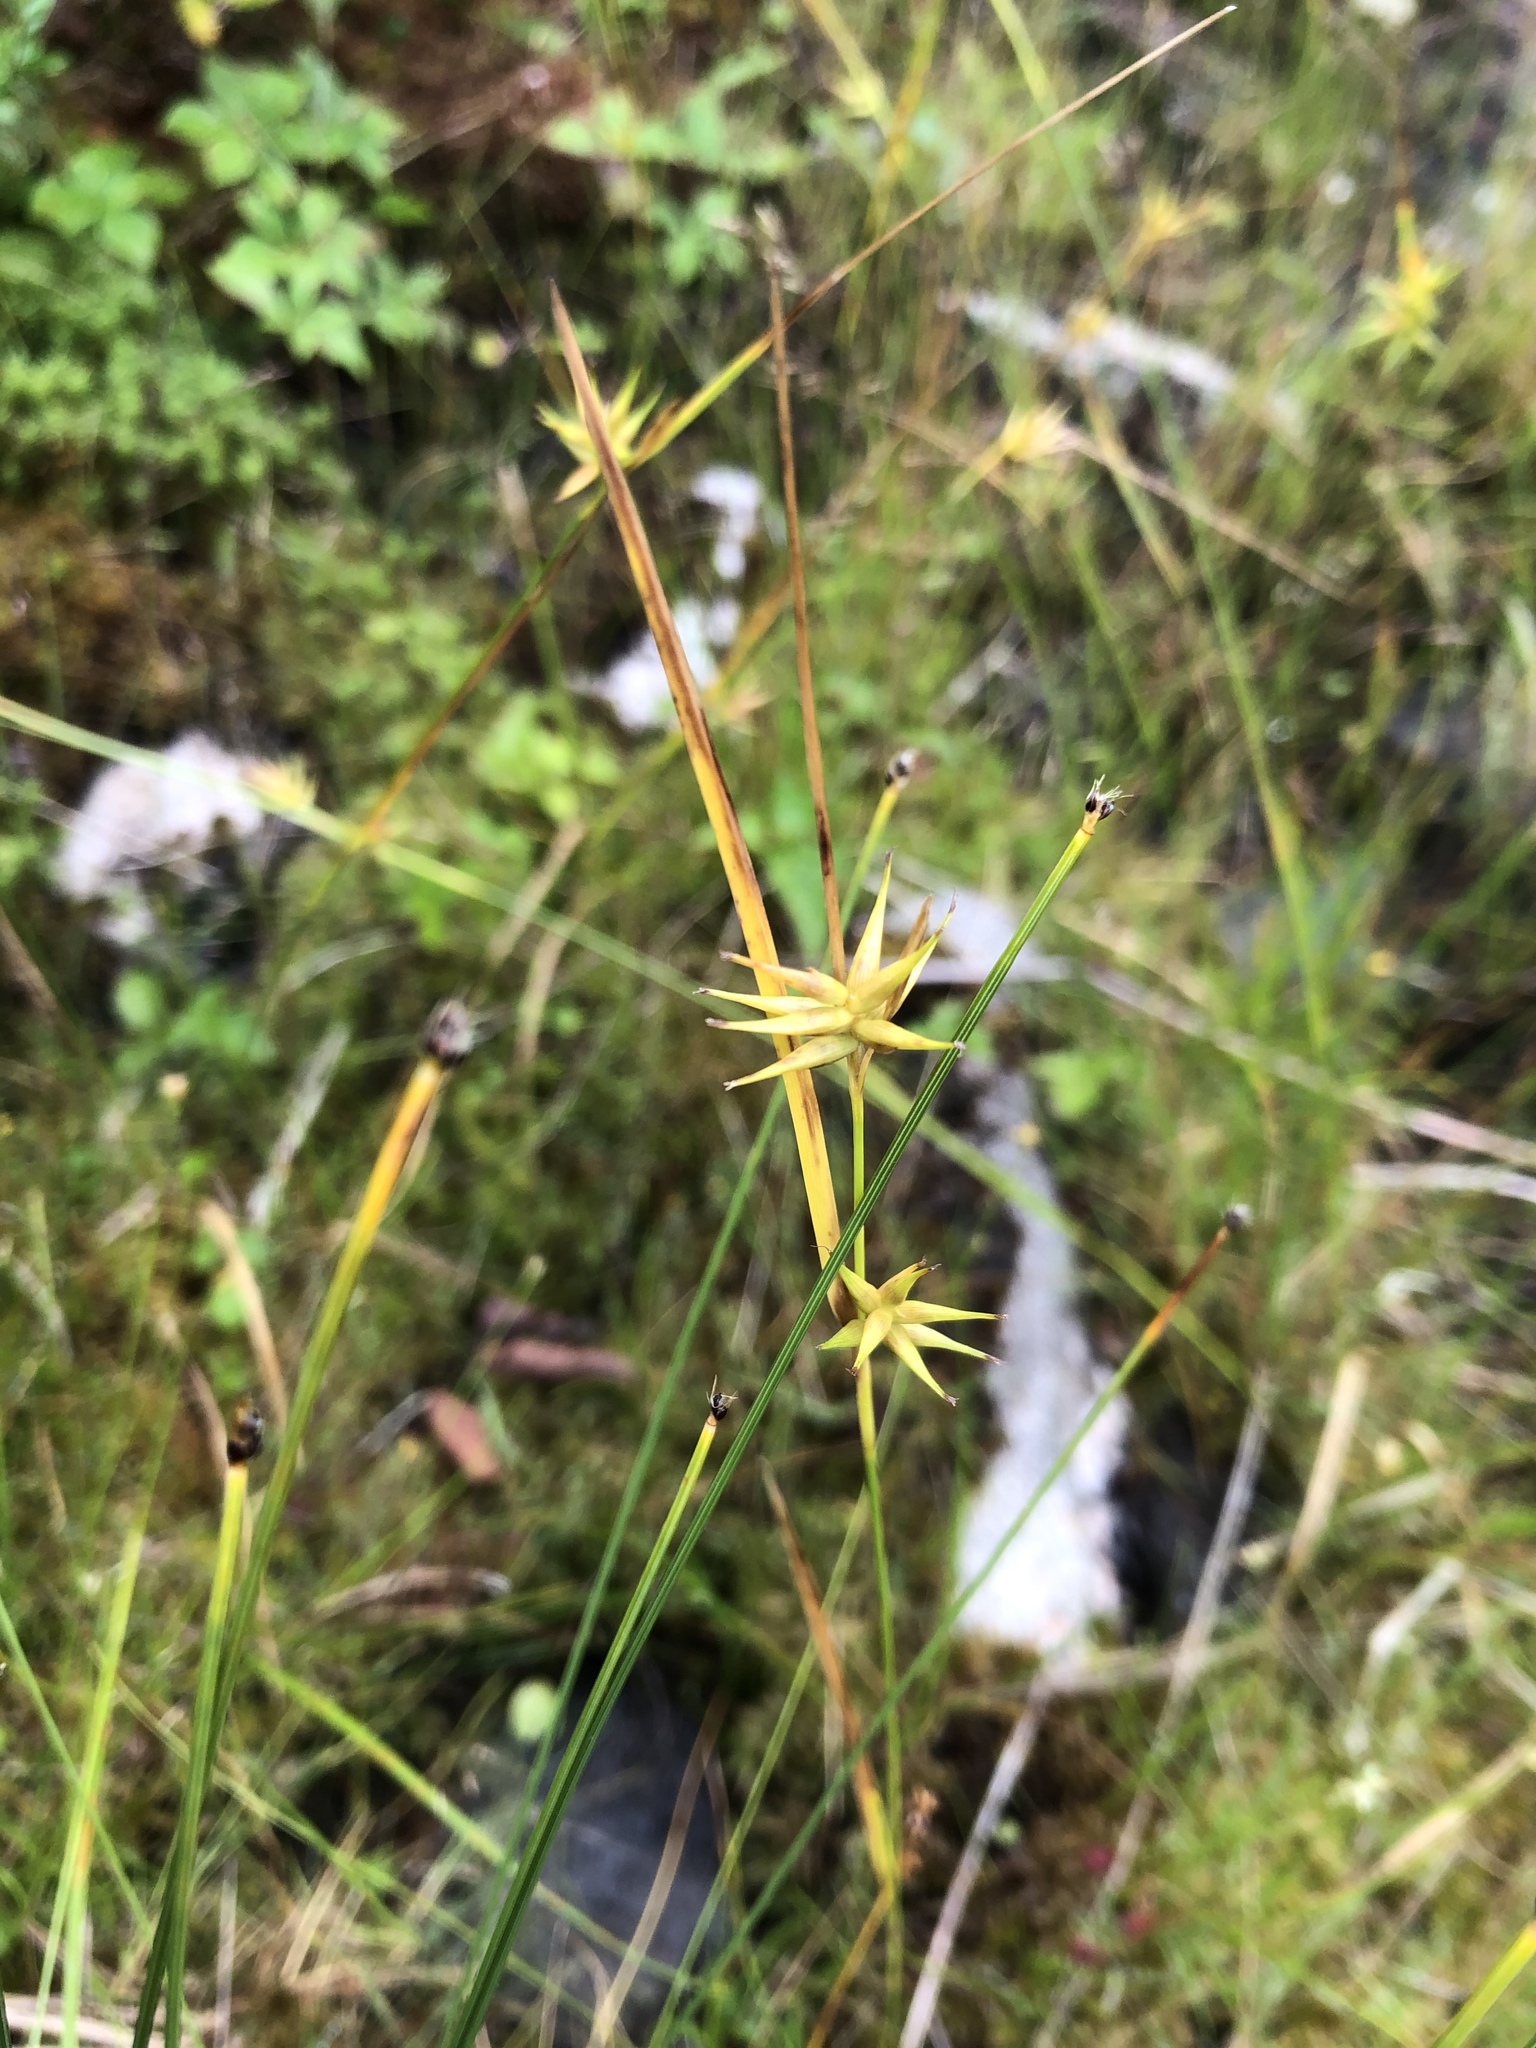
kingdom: Plantae
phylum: Tracheophyta
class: Liliopsida
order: Poales
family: Cyperaceae
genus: Carex
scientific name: Carex michauxiana
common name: Michaux's sedge
